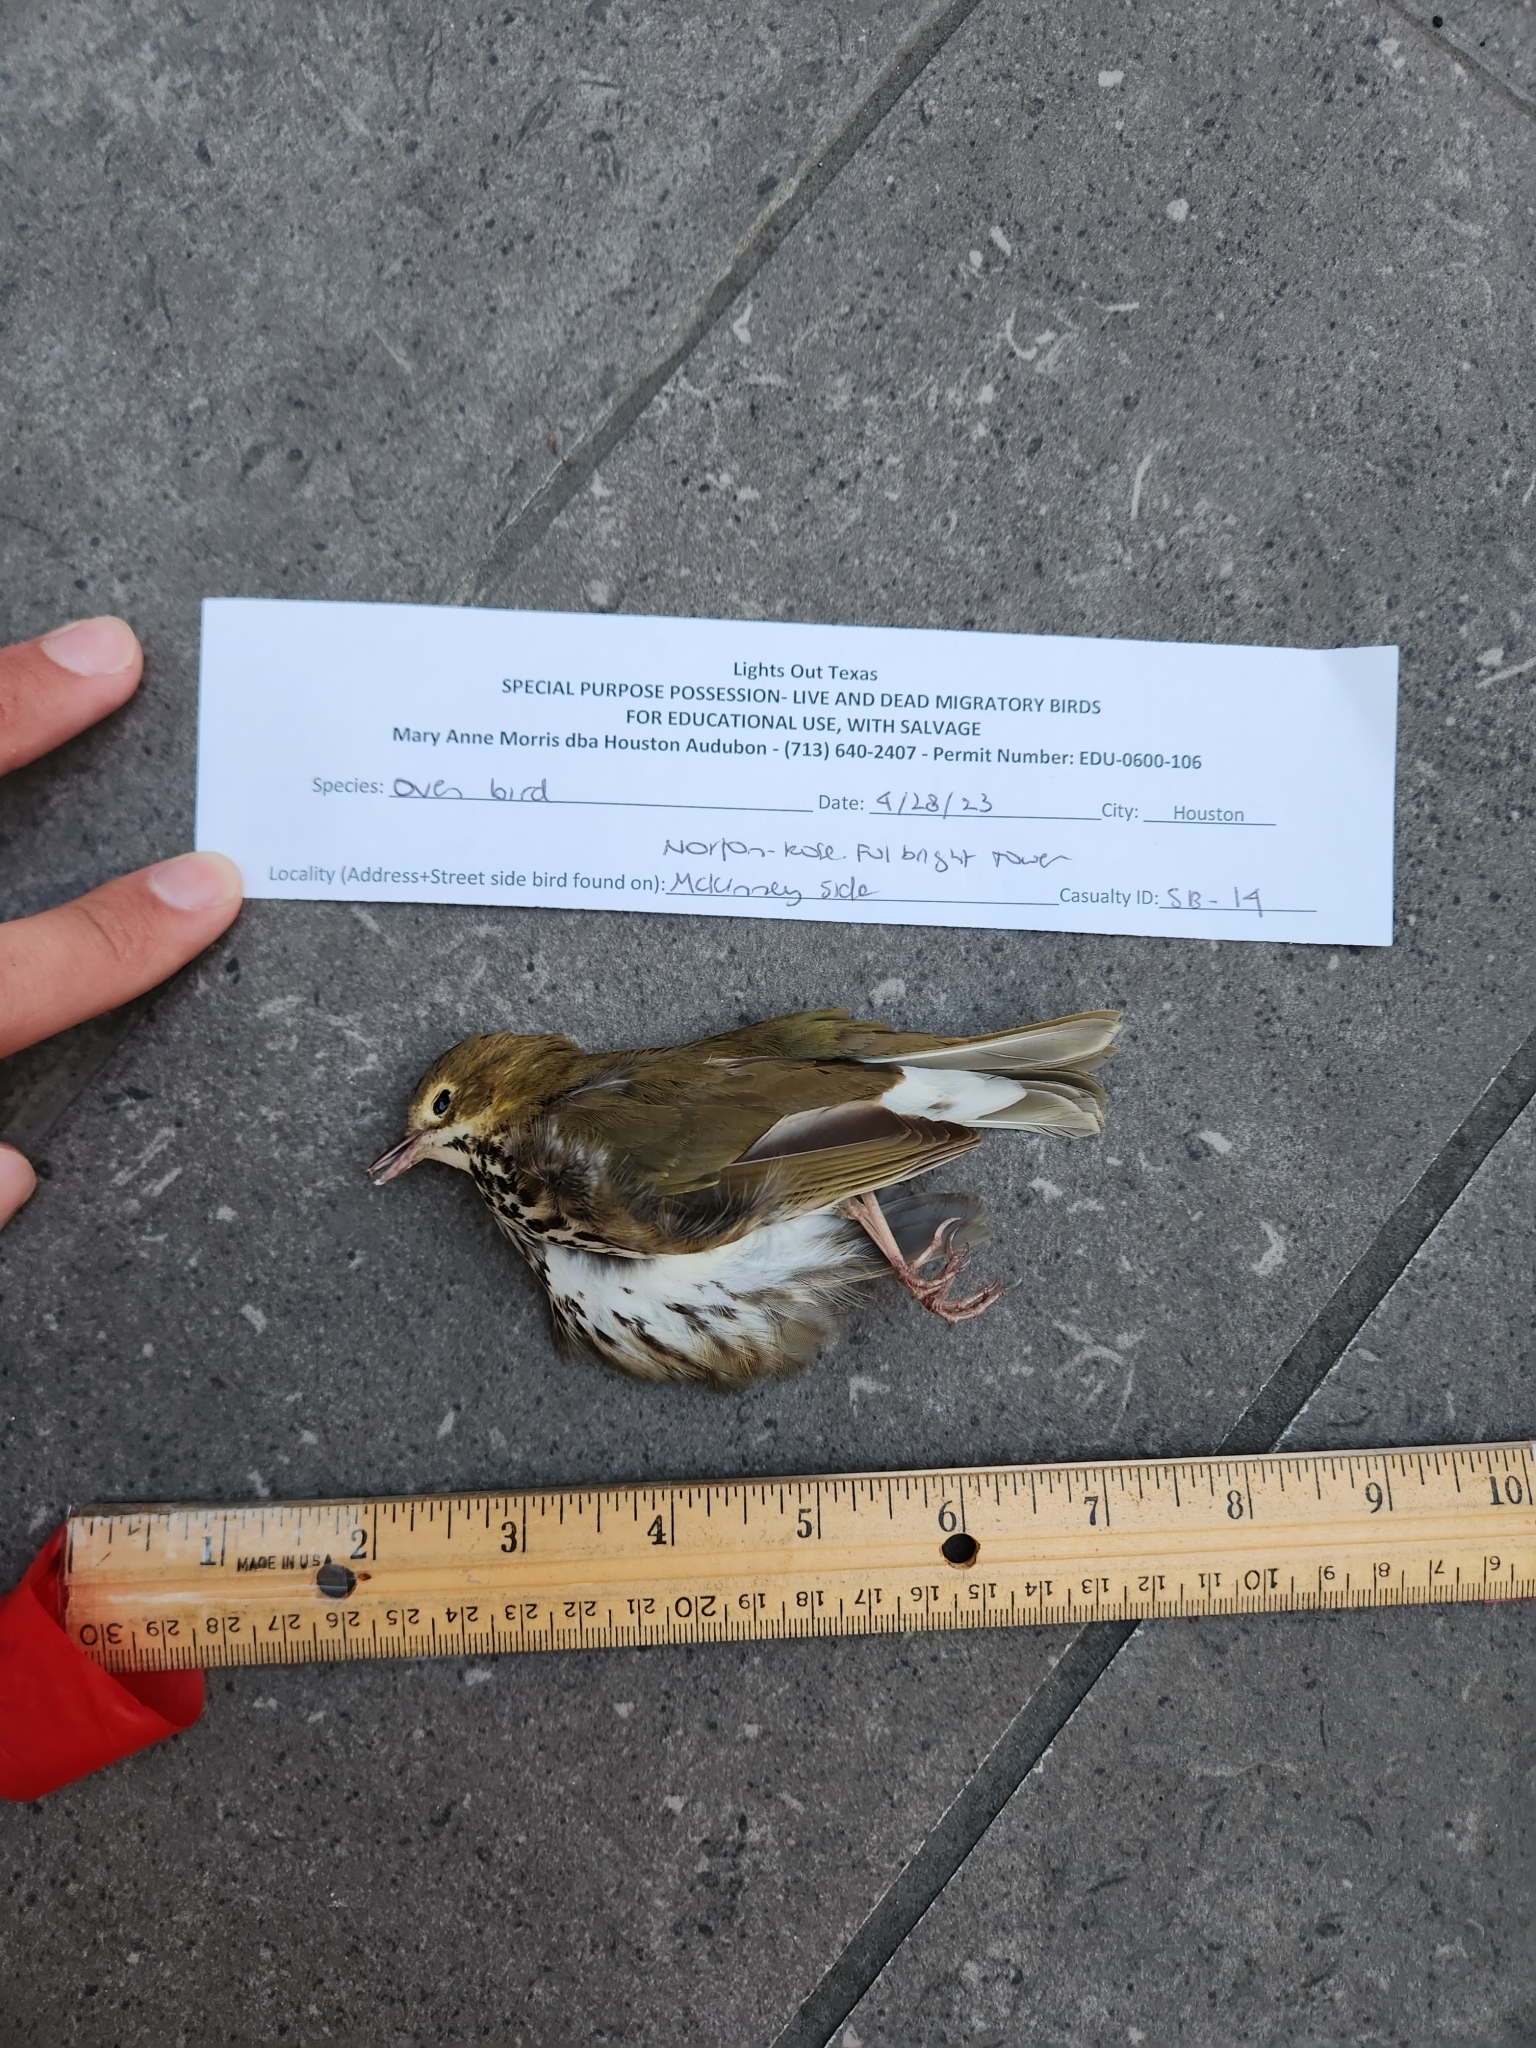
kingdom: Animalia
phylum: Chordata
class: Aves
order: Passeriformes
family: Parulidae
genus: Seiurus
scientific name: Seiurus aurocapilla
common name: Ovenbird
